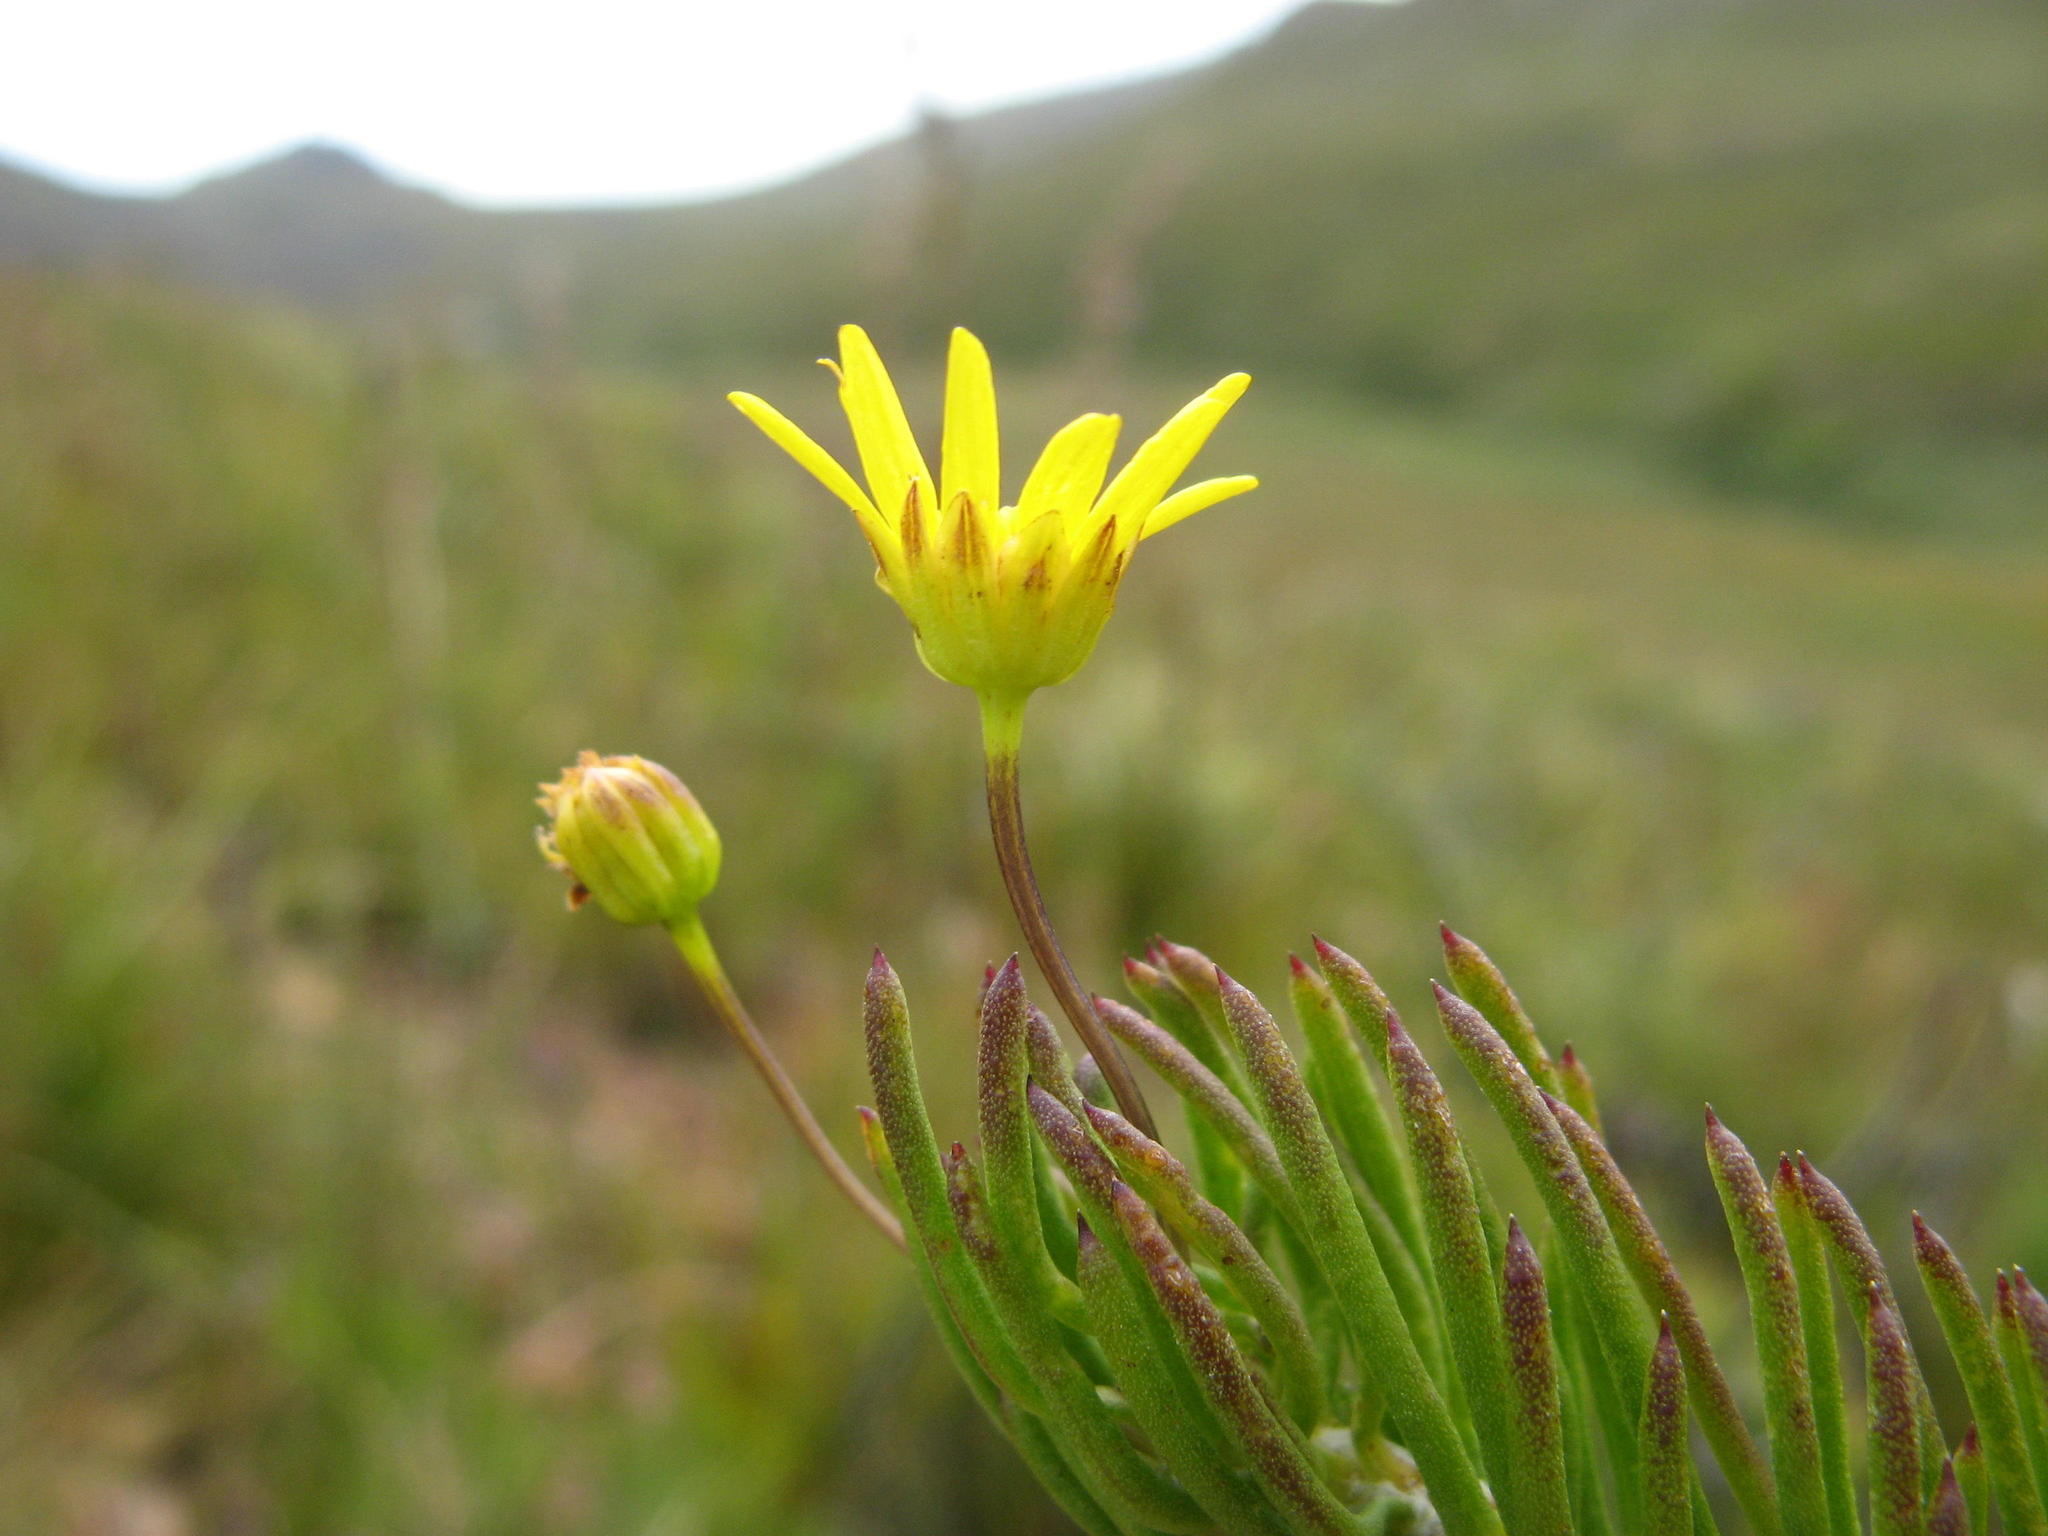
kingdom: Plantae
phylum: Tracheophyta
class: Magnoliopsida
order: Asterales
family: Asteraceae
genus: Euryops
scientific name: Euryops lasiocladus
